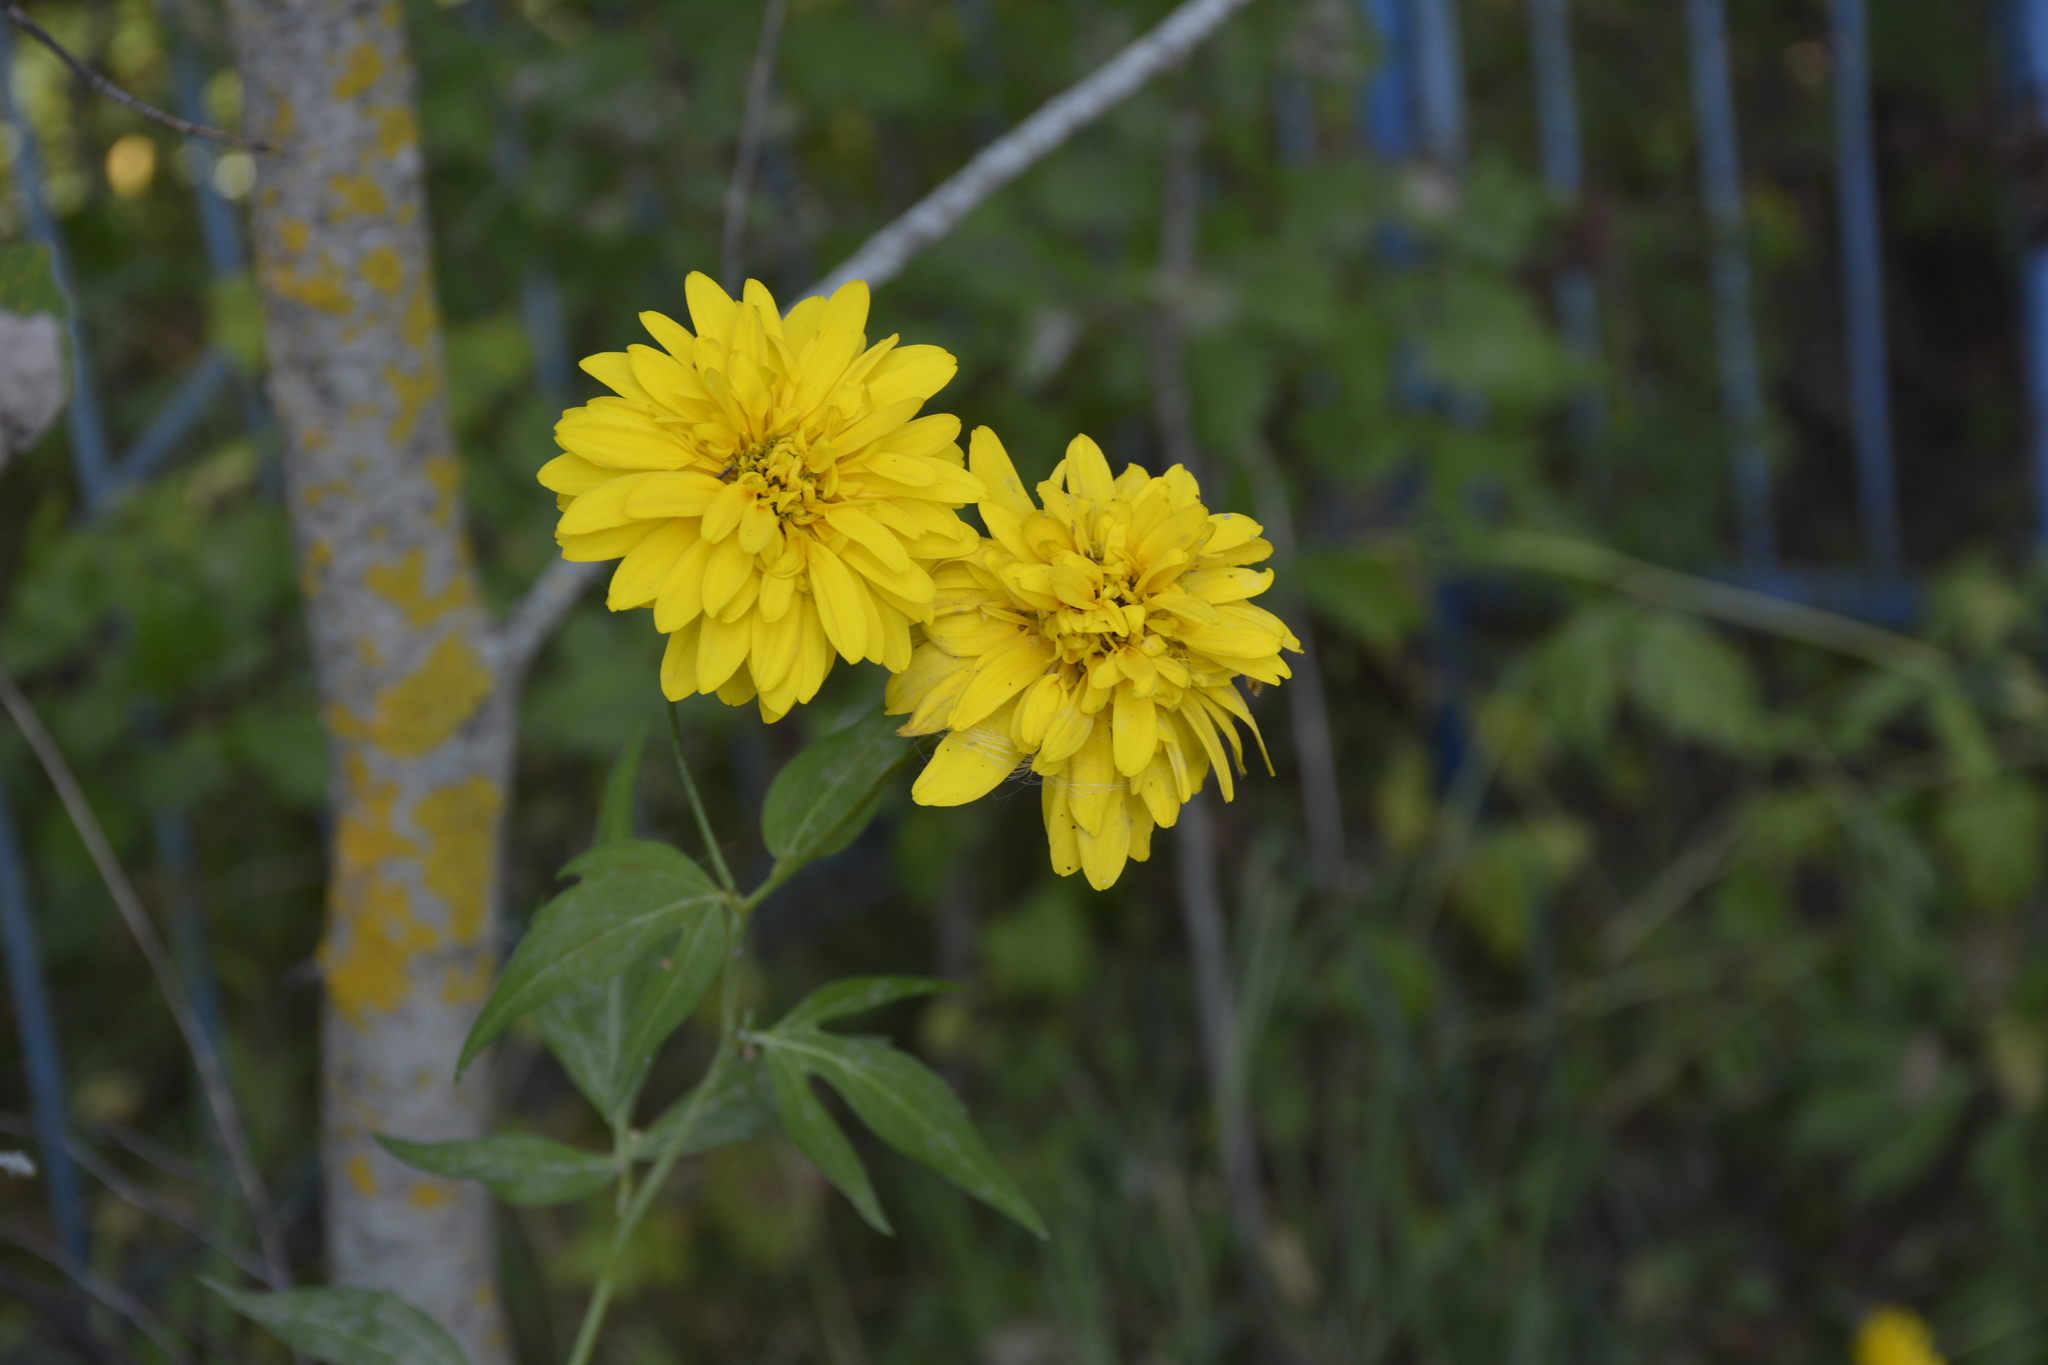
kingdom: Plantae
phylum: Tracheophyta
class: Magnoliopsida
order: Asterales
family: Asteraceae
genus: Rudbeckia
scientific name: Rudbeckia laciniata
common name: Coneflower
